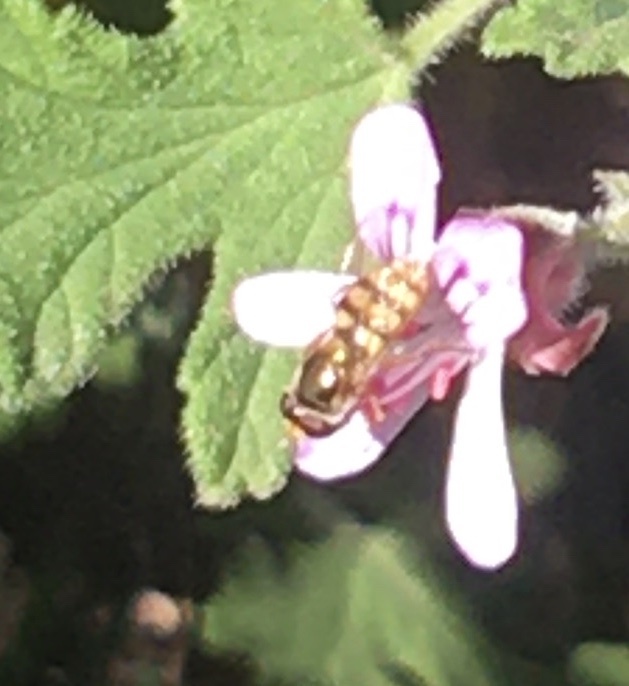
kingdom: Animalia
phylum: Arthropoda
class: Insecta
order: Diptera
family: Syrphidae
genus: Eupeodes
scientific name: Eupeodes corollae
